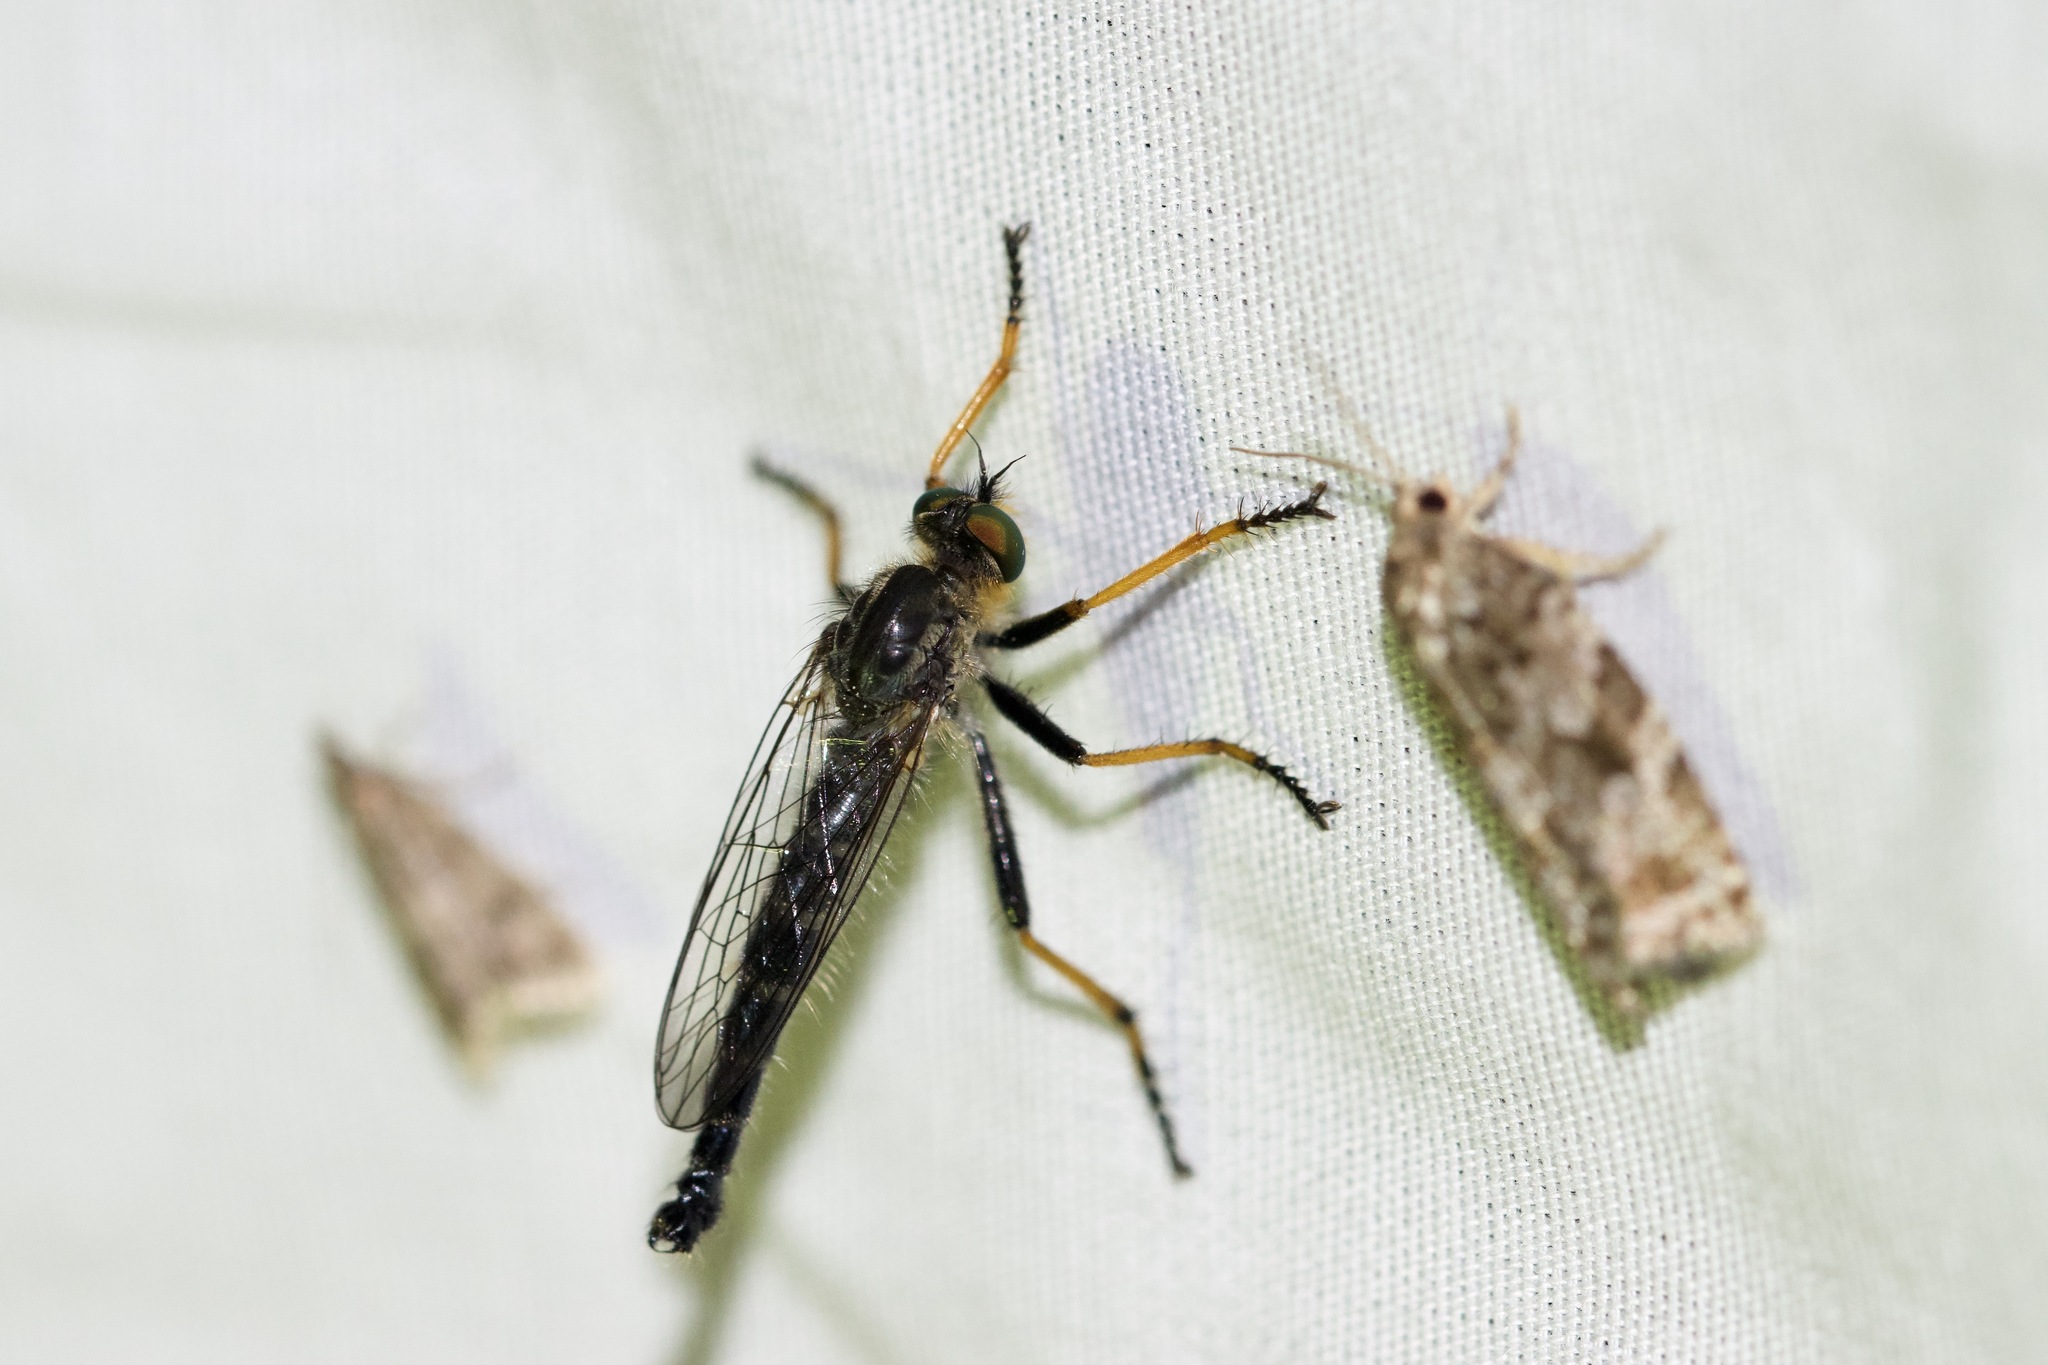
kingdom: Animalia
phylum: Arthropoda
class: Insecta
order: Diptera
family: Asilidae
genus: Neoitamus
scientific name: Neoitamus orphne
